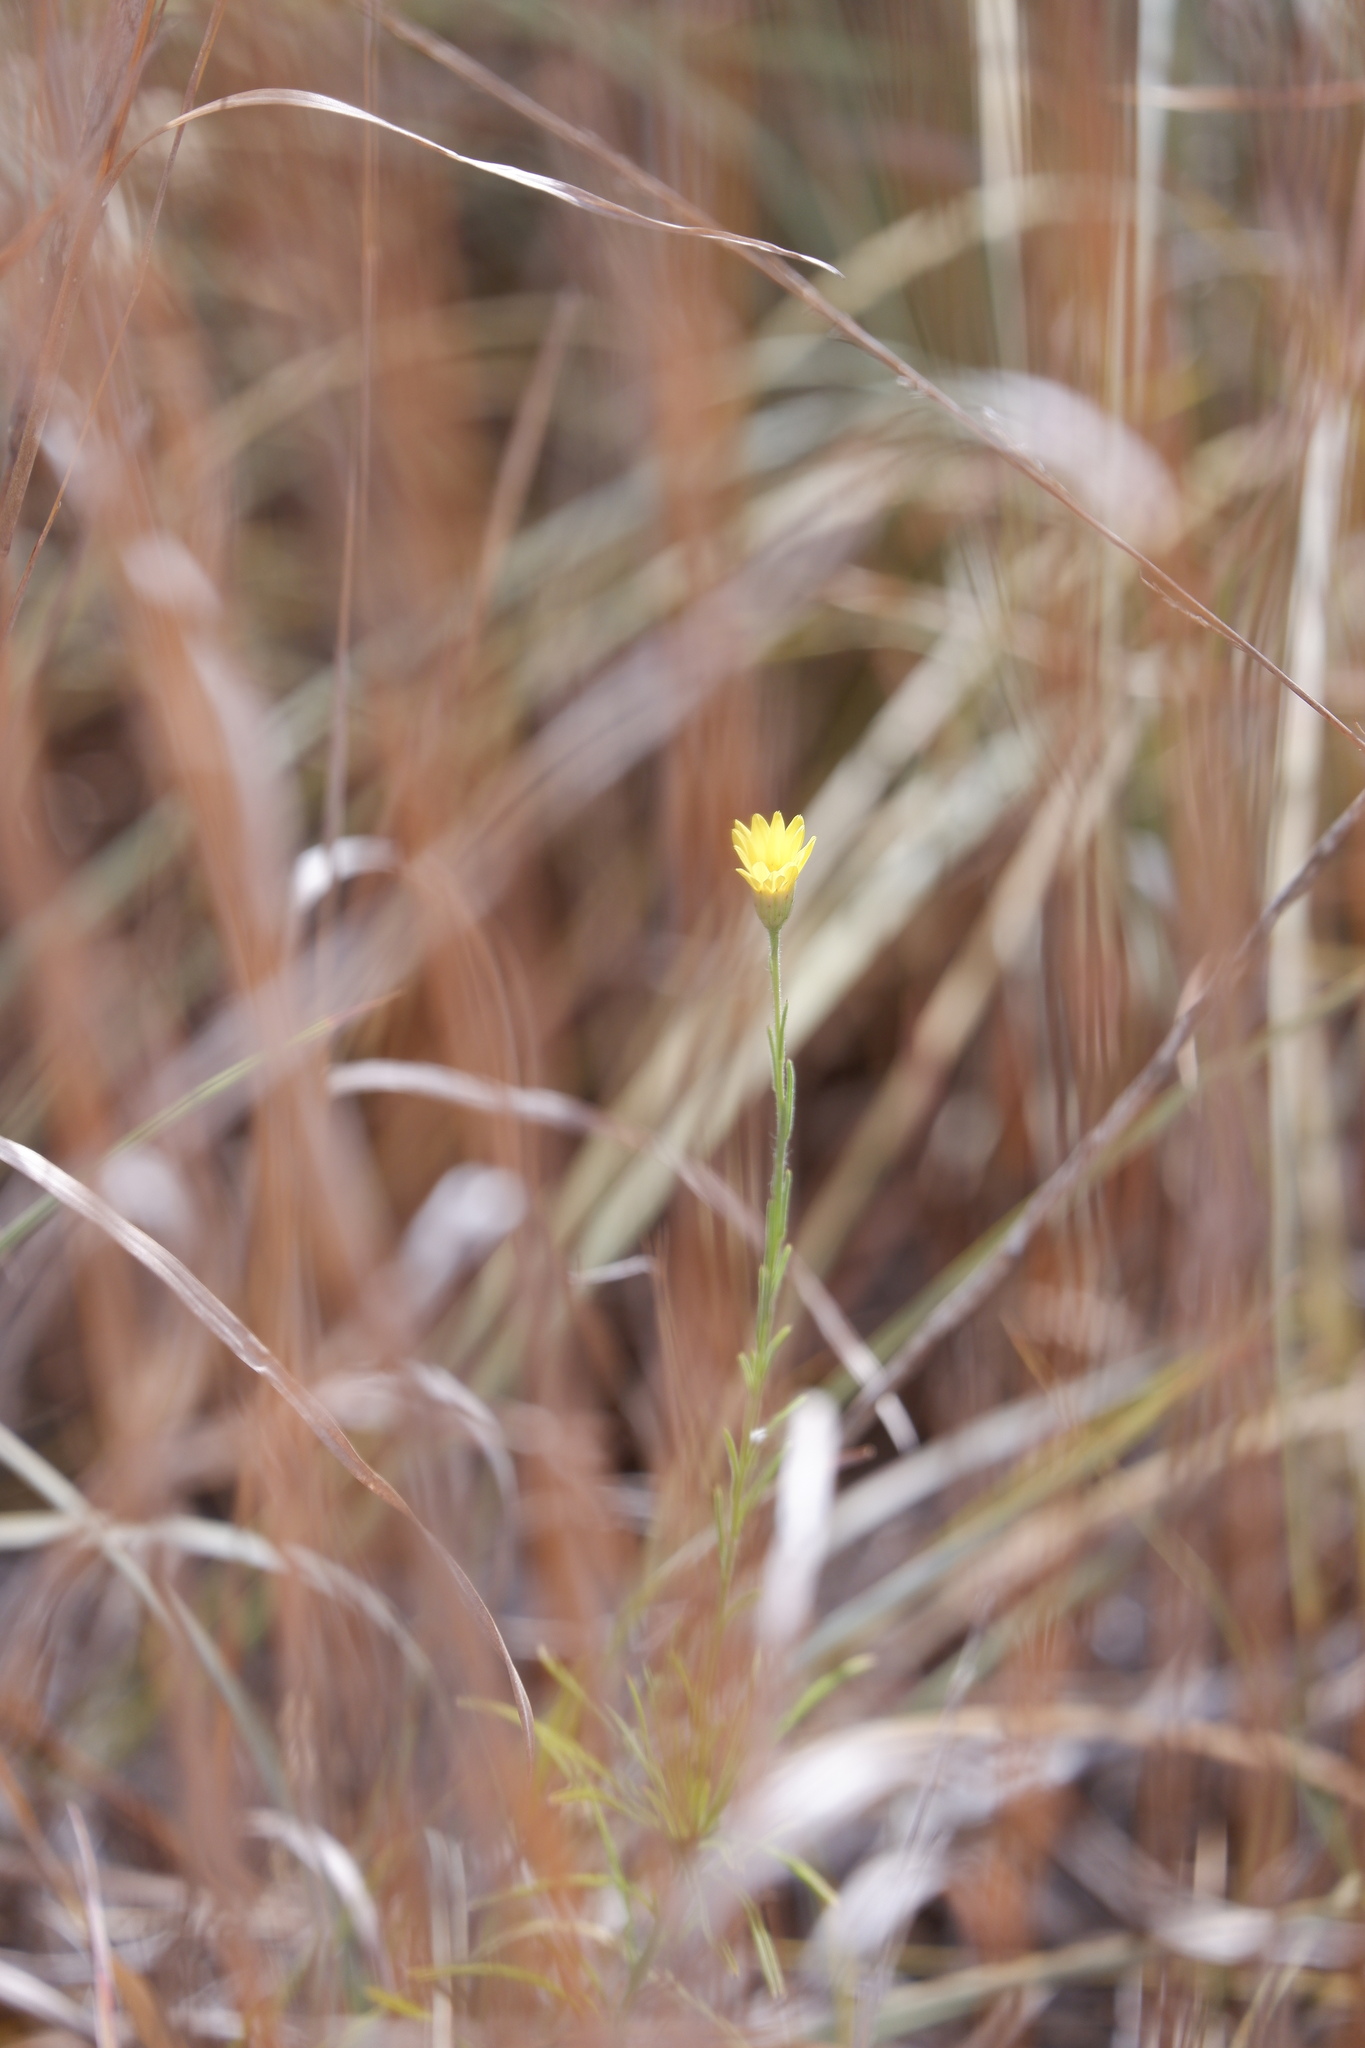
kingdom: Plantae
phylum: Tracheophyta
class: Magnoliopsida
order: Asterales
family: Asteraceae
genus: Croptilon
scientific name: Croptilon divaricatum
